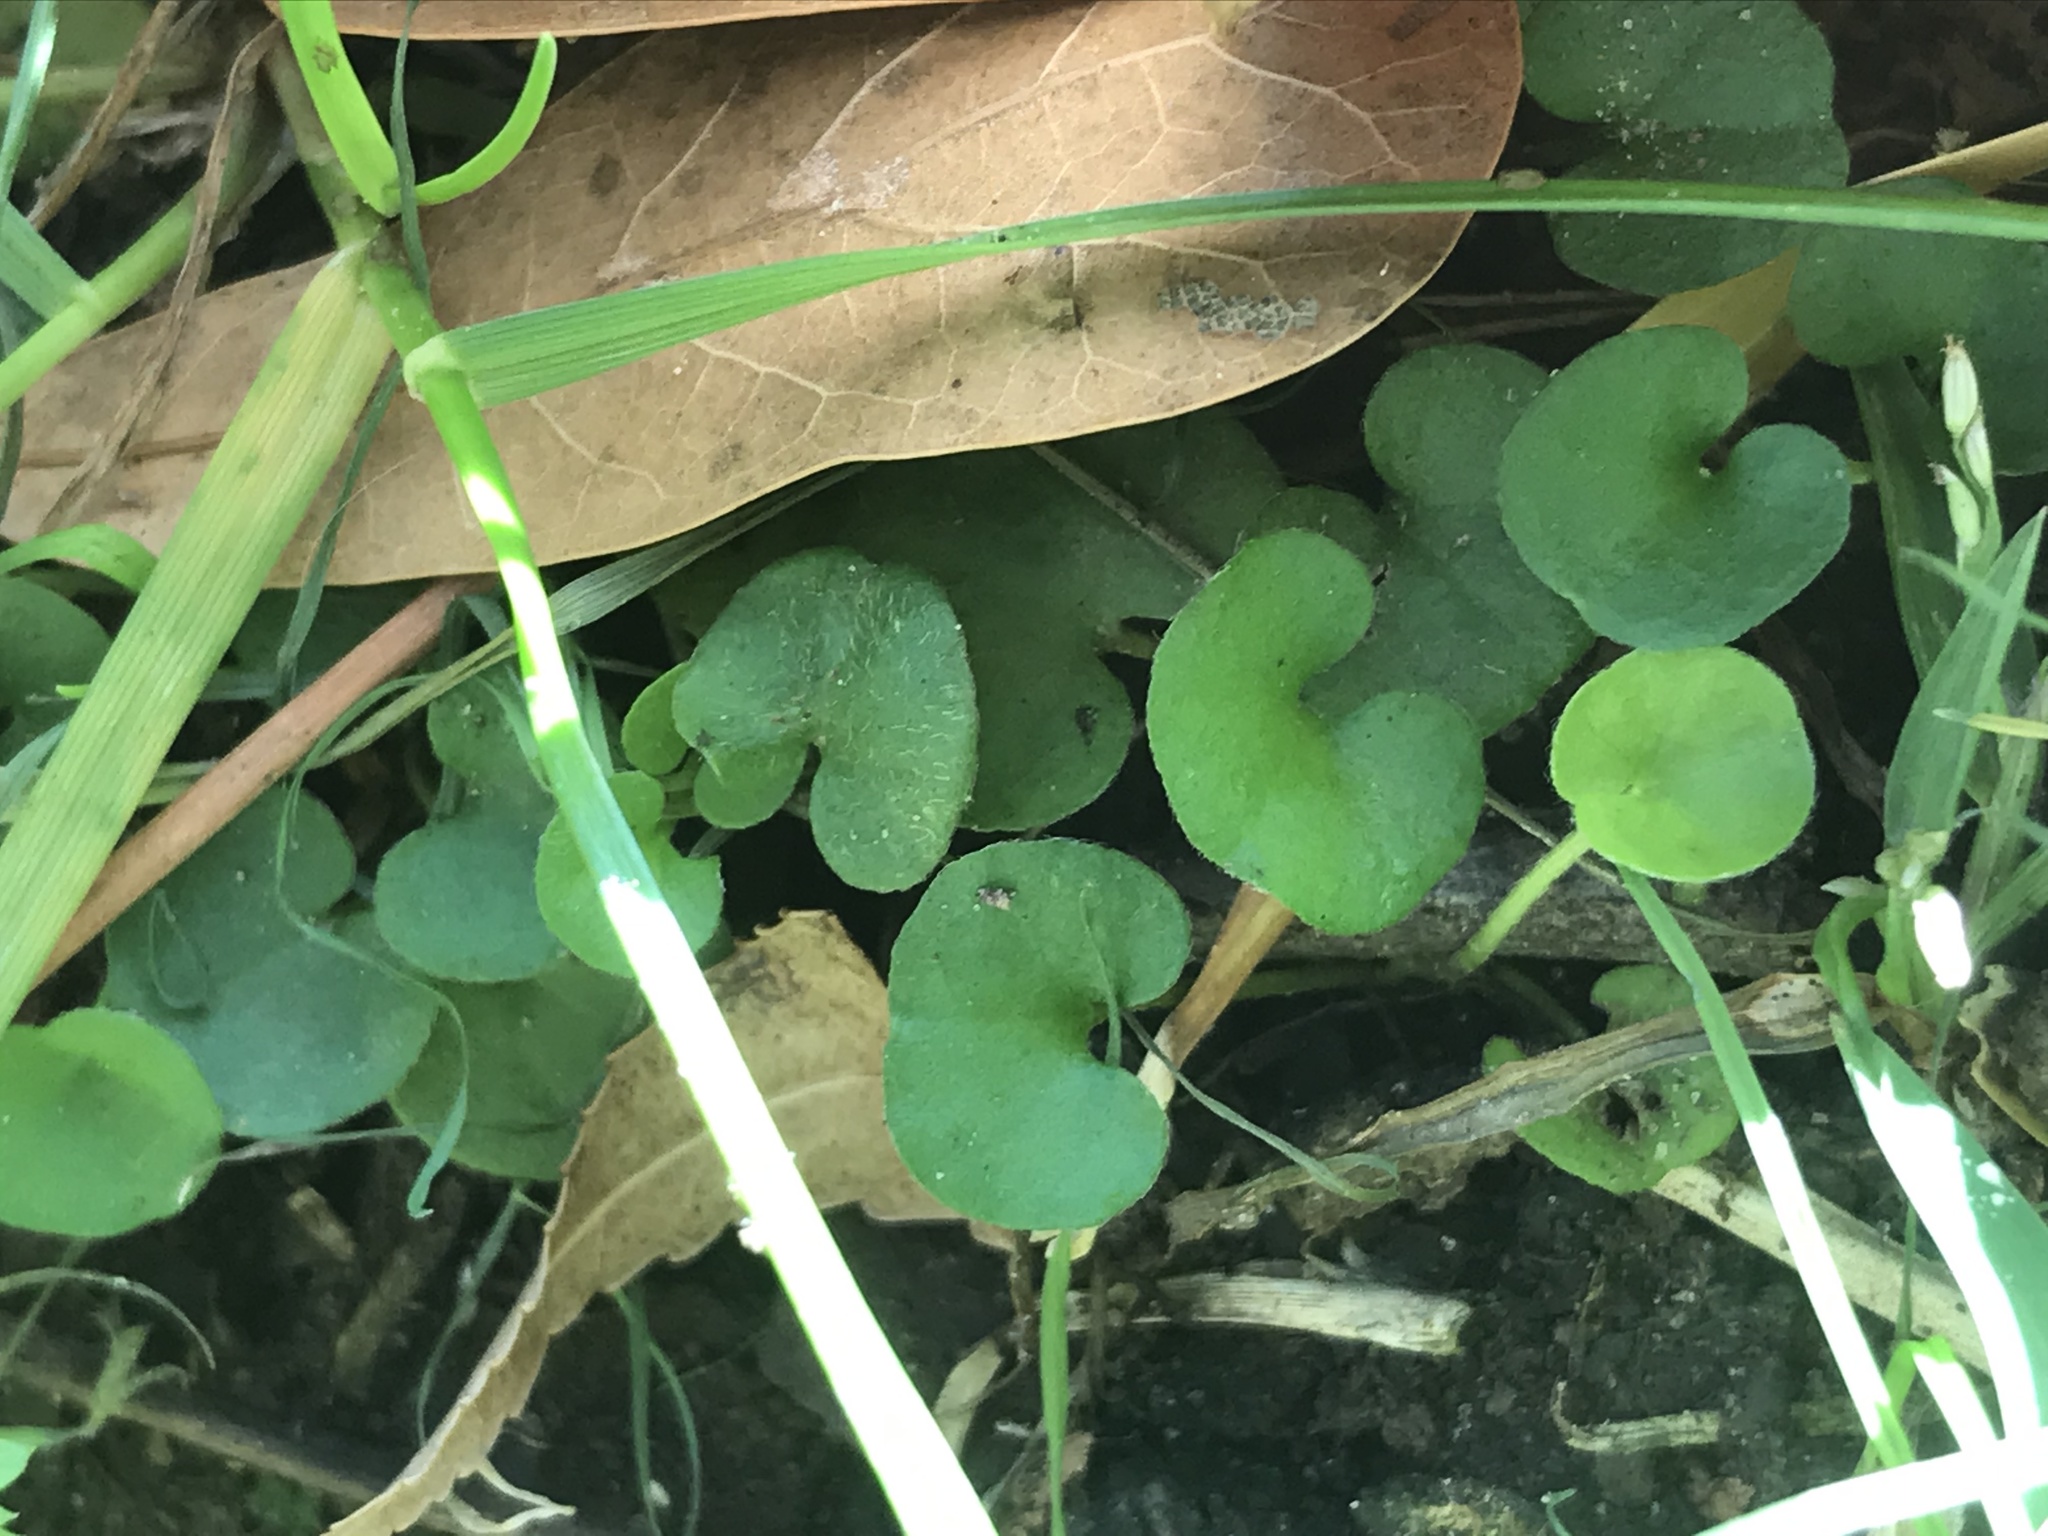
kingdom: Plantae
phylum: Tracheophyta
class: Magnoliopsida
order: Solanales
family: Convolvulaceae
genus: Dichondra
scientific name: Dichondra carolinensis
